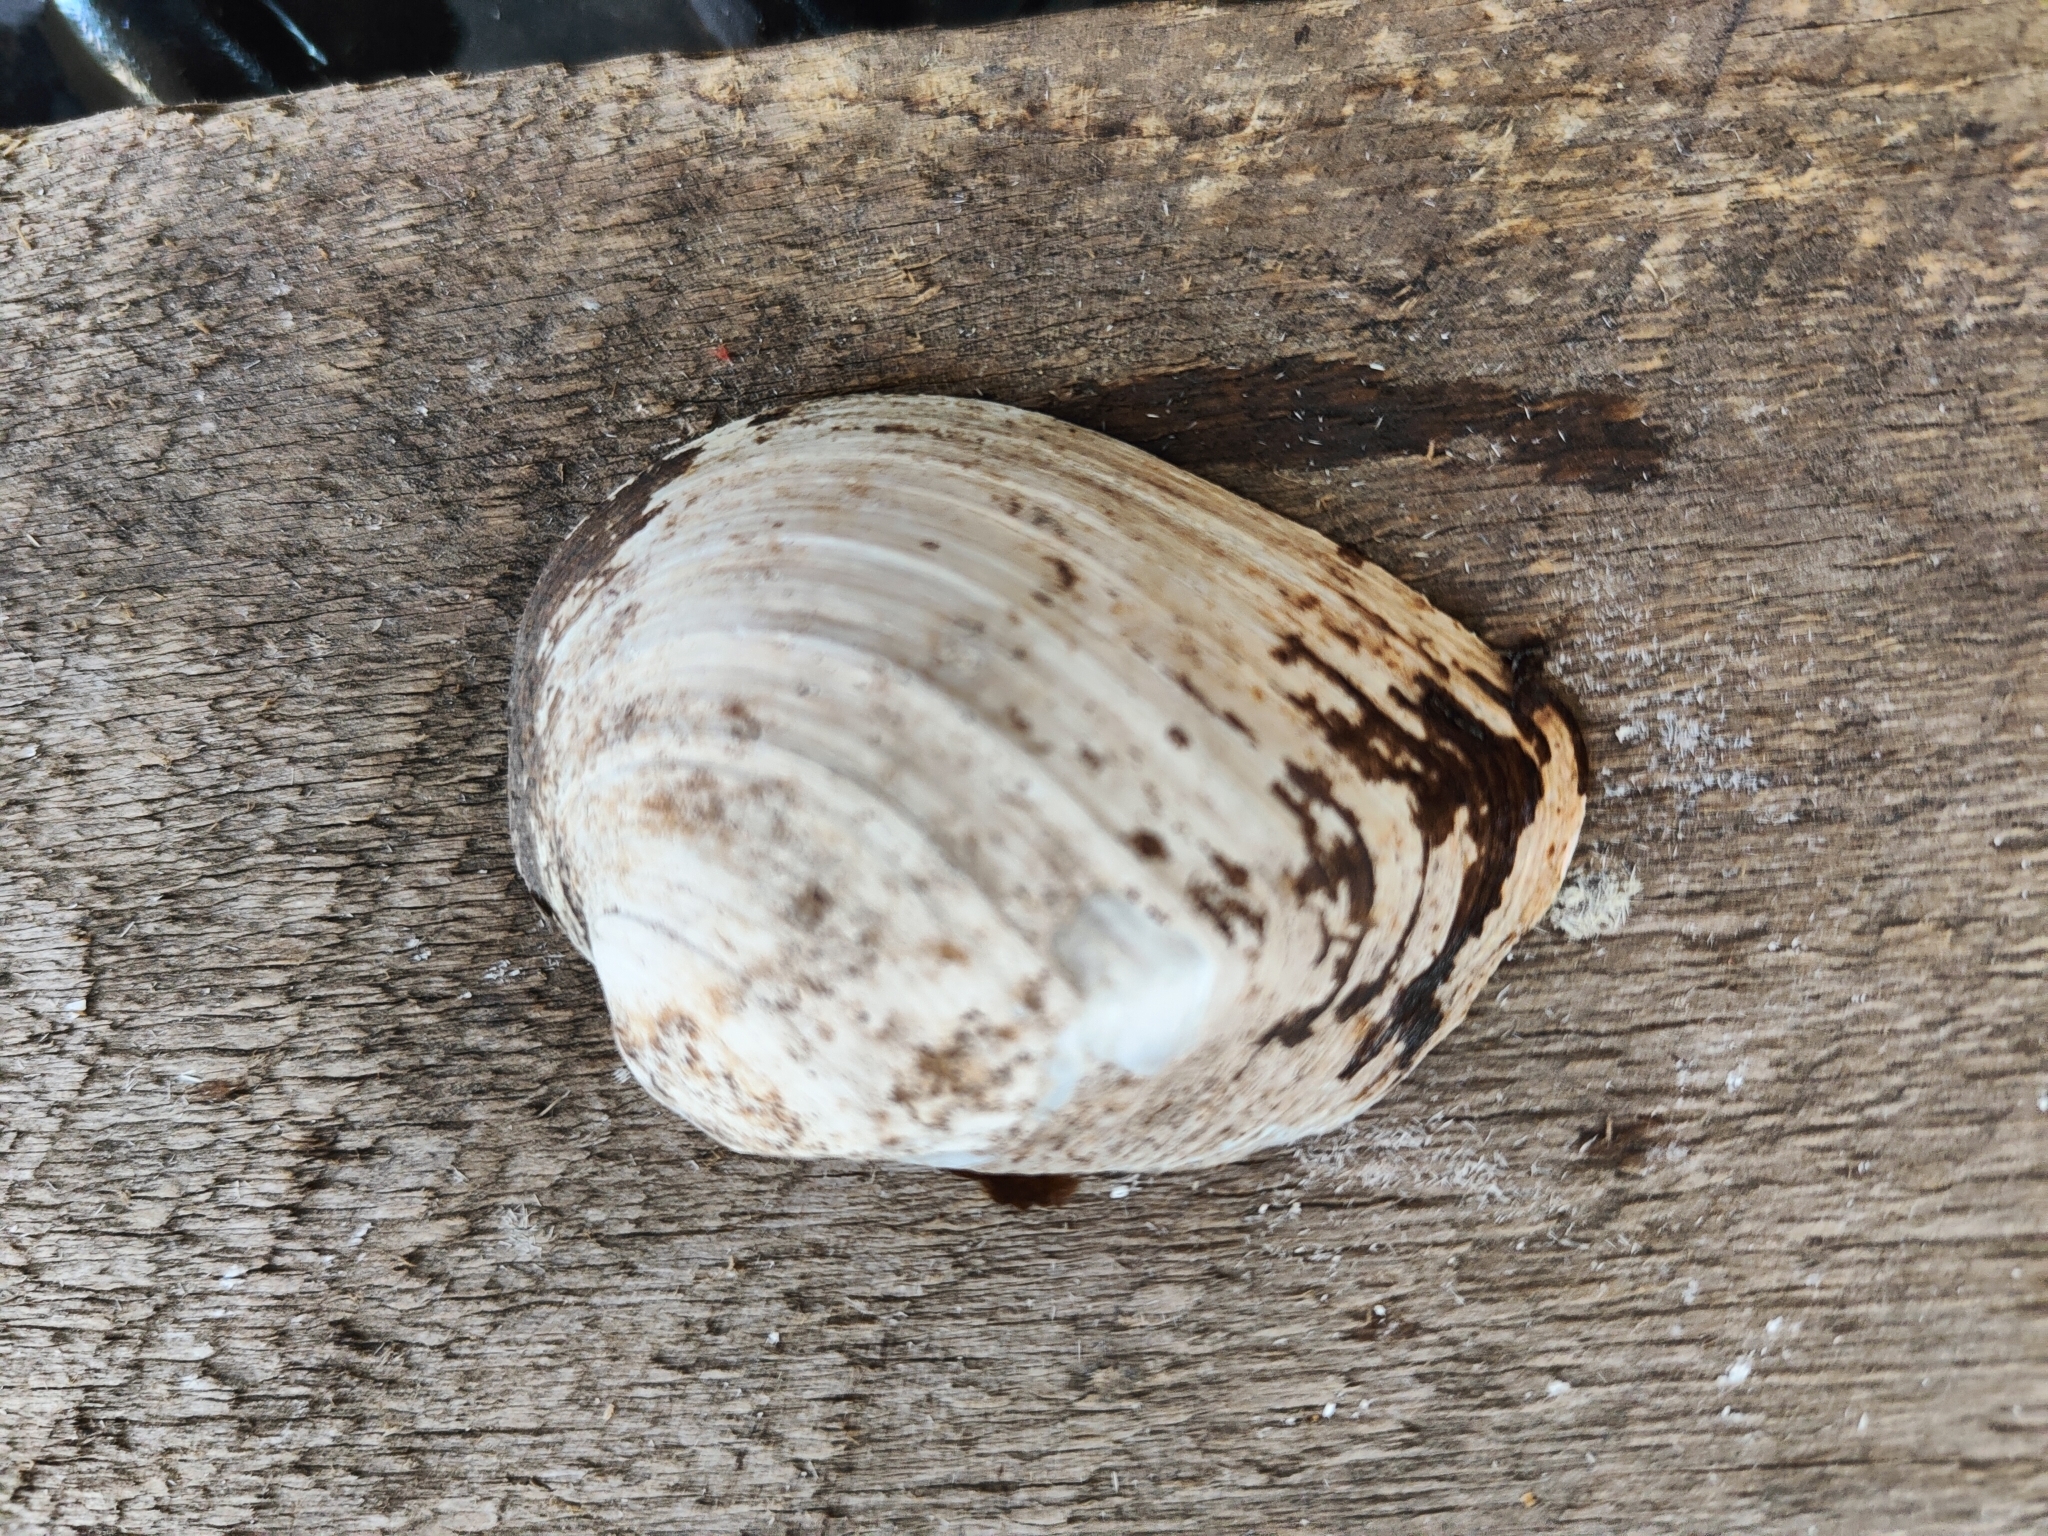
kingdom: Animalia
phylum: Mollusca
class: Bivalvia
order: Unionida
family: Unionidae
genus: Fusconaia
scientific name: Fusconaia flava
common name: Wabash pigtoe
